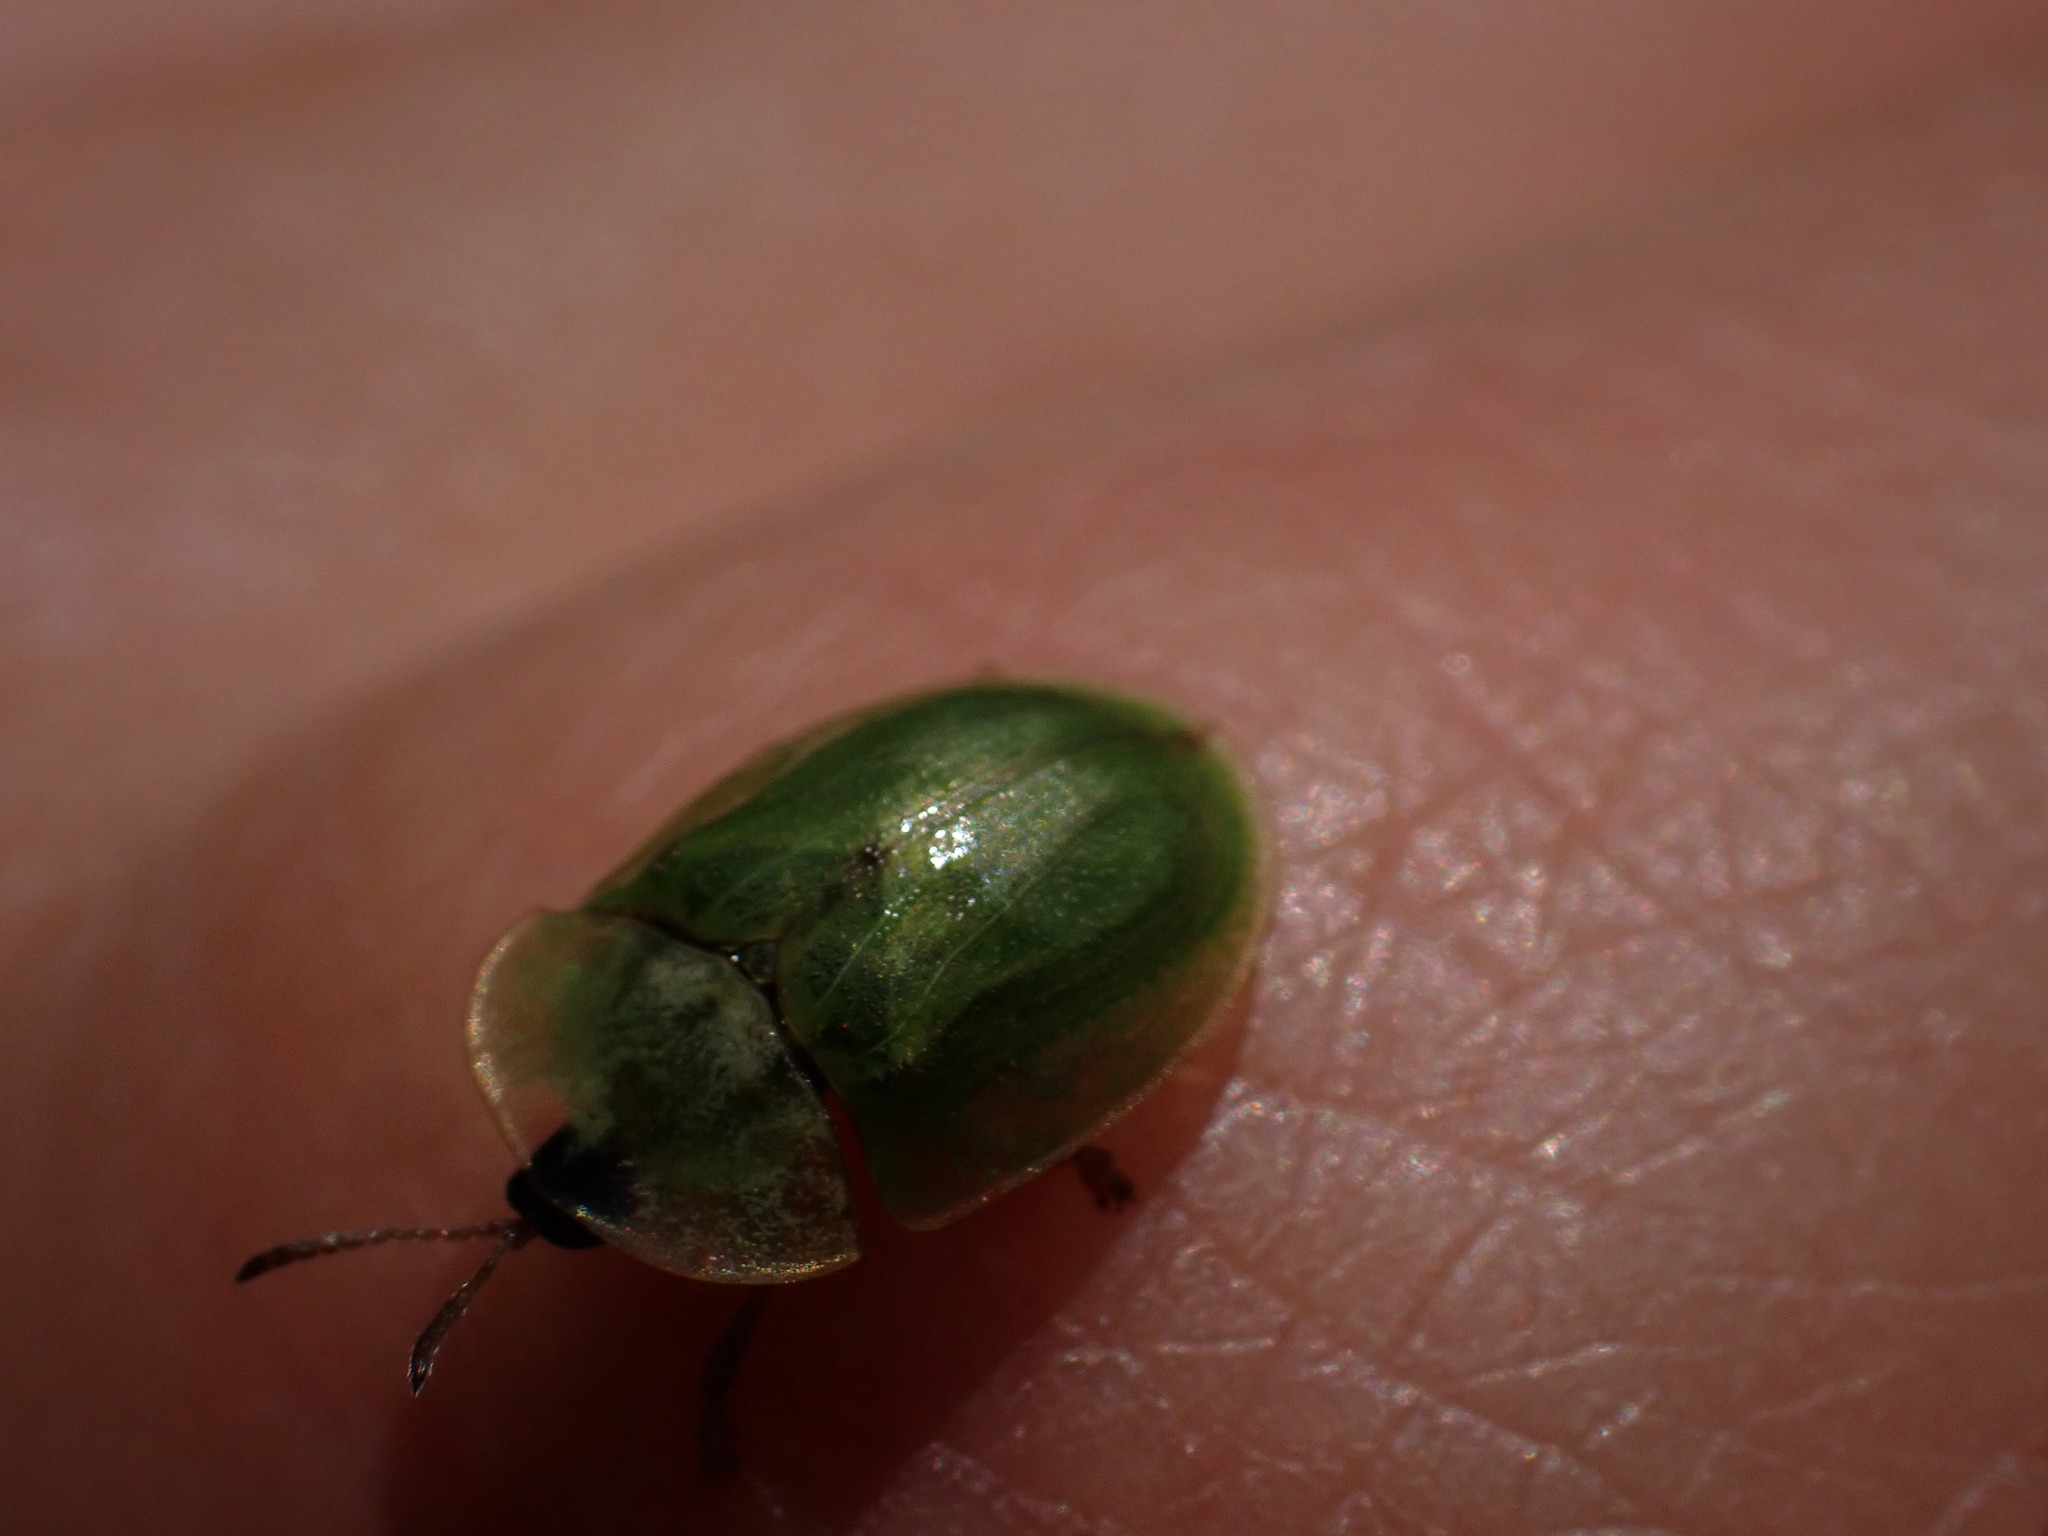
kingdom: Animalia
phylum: Arthropoda
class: Insecta
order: Coleoptera
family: Chrysomelidae
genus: Cassida
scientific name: Cassida deflorata
